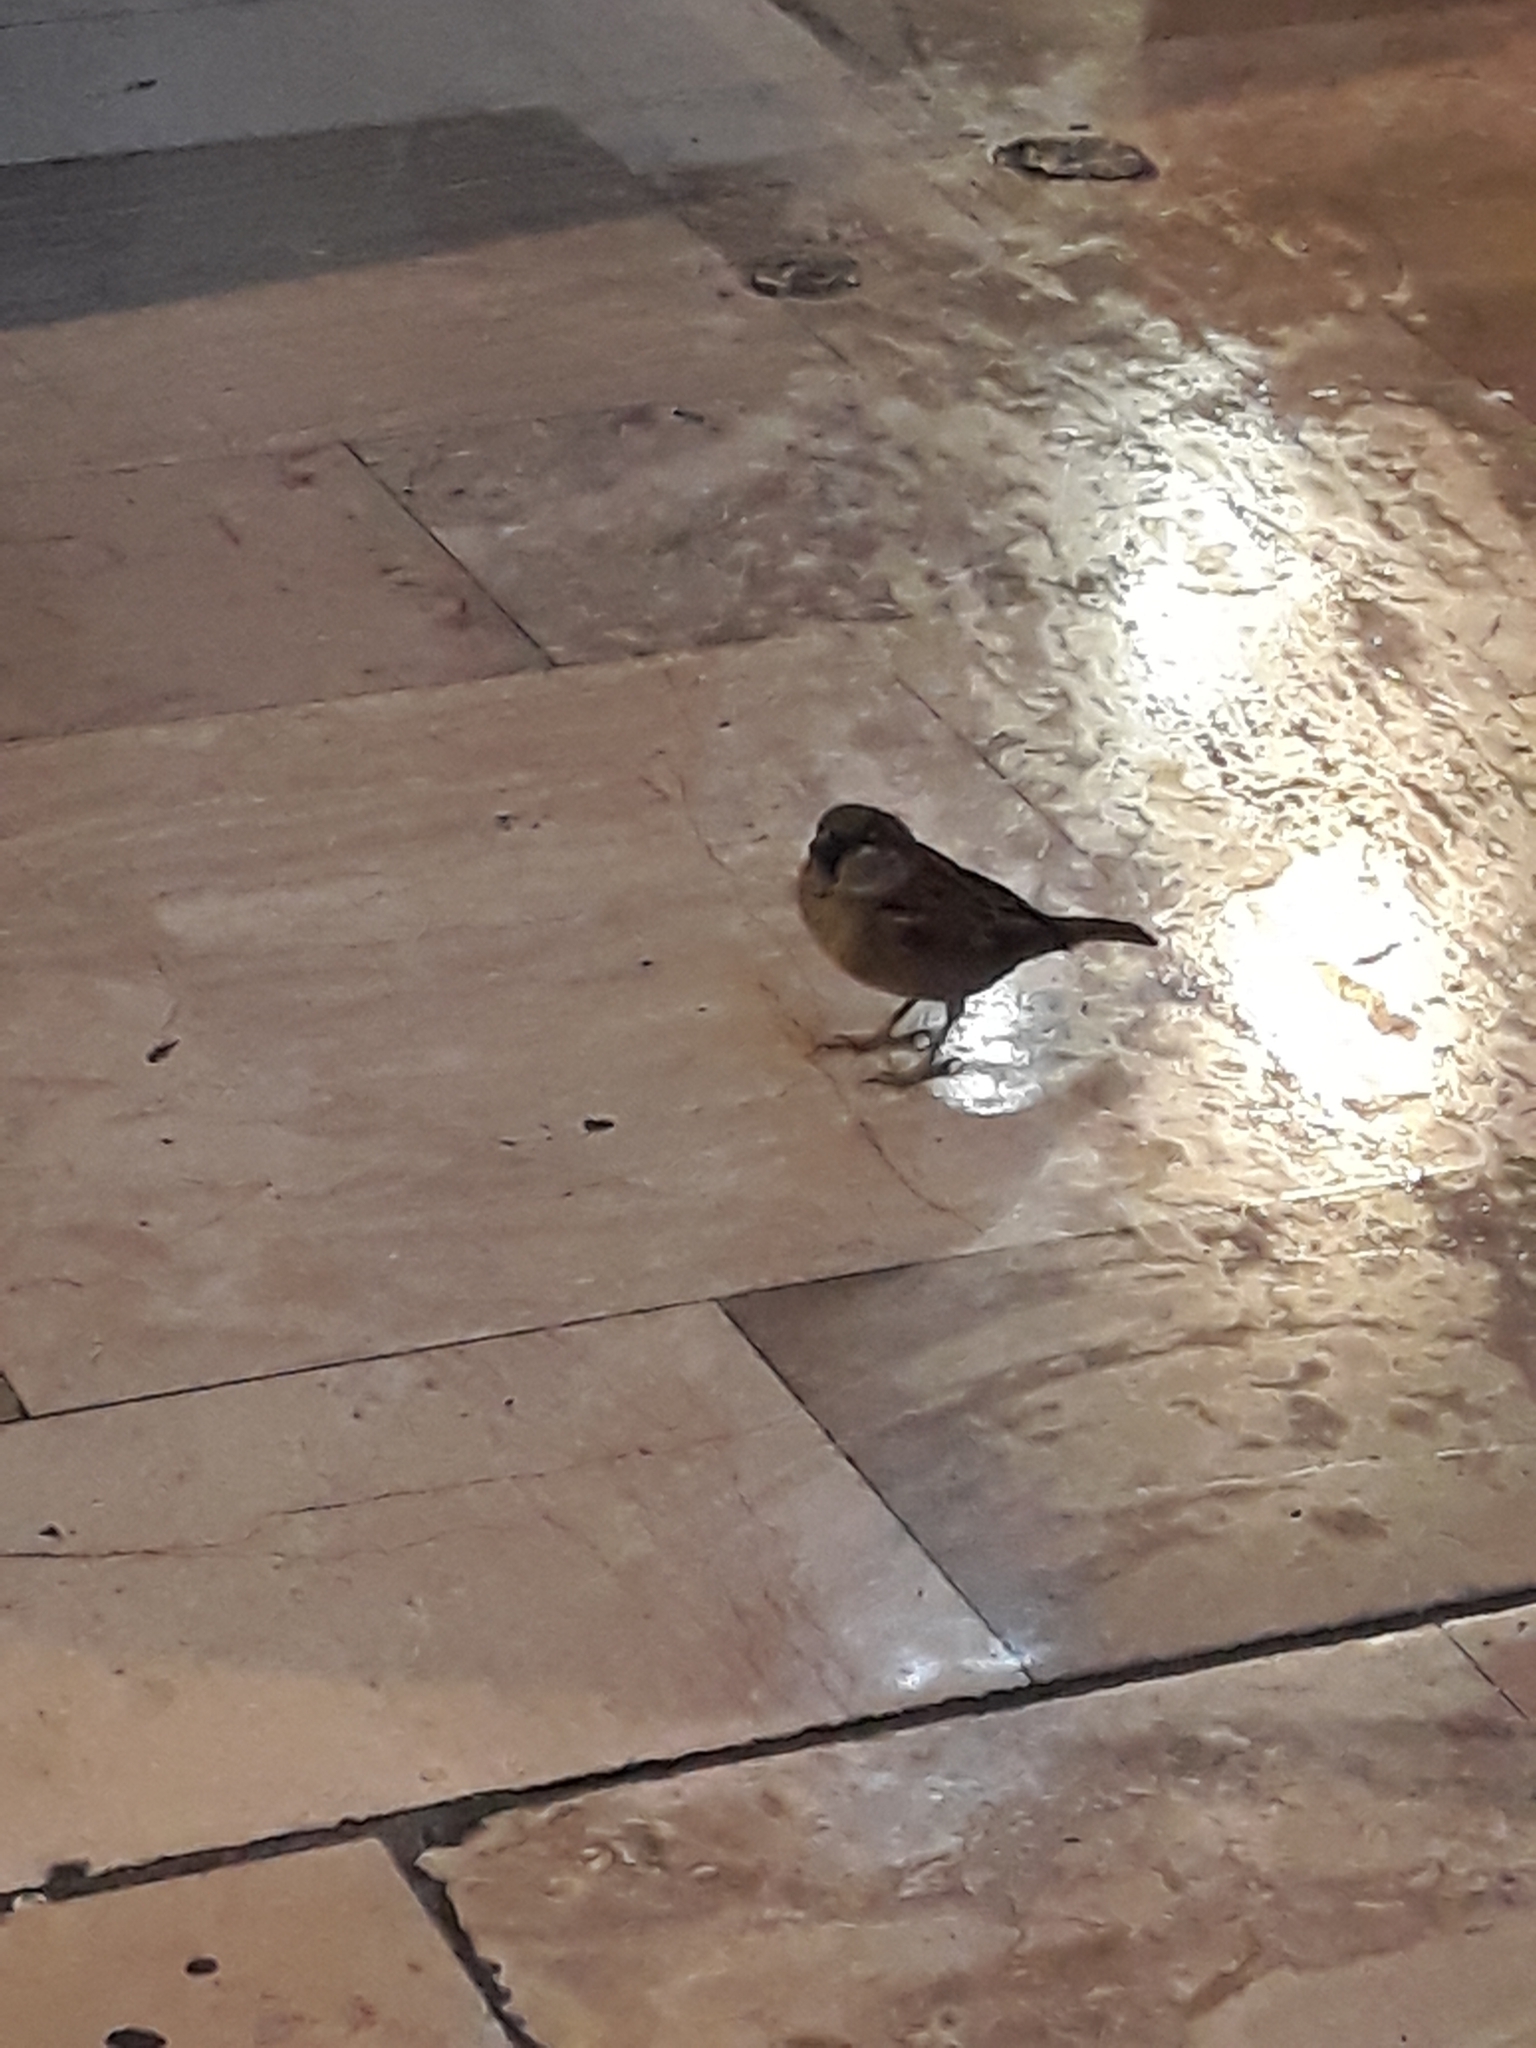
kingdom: Animalia
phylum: Chordata
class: Aves
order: Passeriformes
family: Passeridae
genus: Passer
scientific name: Passer domesticus
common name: House sparrow
